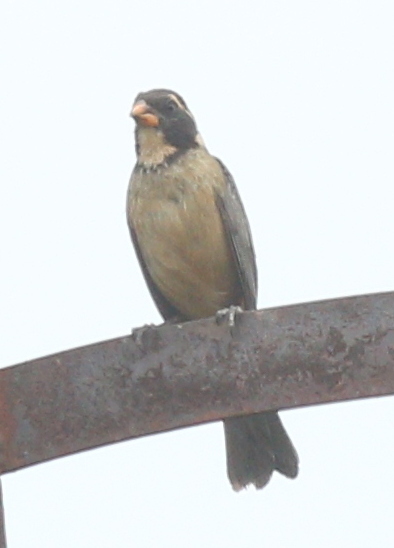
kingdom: Animalia
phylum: Chordata
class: Aves
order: Passeriformes
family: Thraupidae
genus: Saltator
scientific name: Saltator aurantiirostris
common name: Golden-billed saltator
